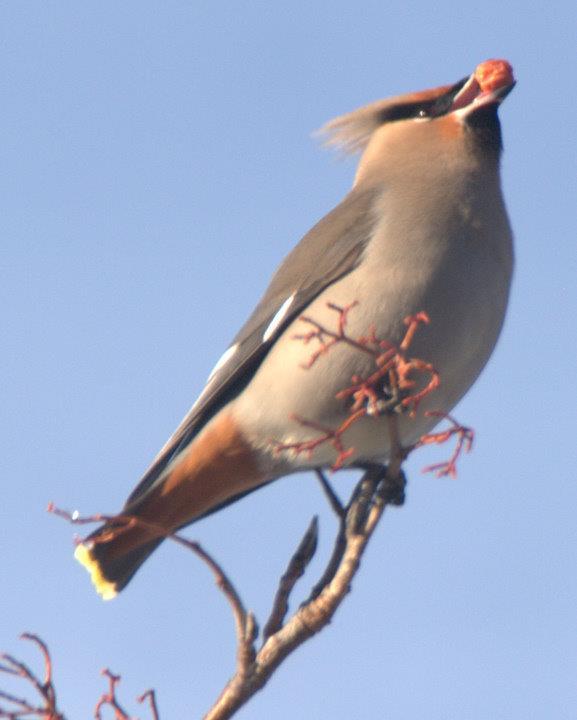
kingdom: Animalia
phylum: Chordata
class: Aves
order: Passeriformes
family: Bombycillidae
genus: Bombycilla
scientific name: Bombycilla garrulus
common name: Bohemian waxwing
